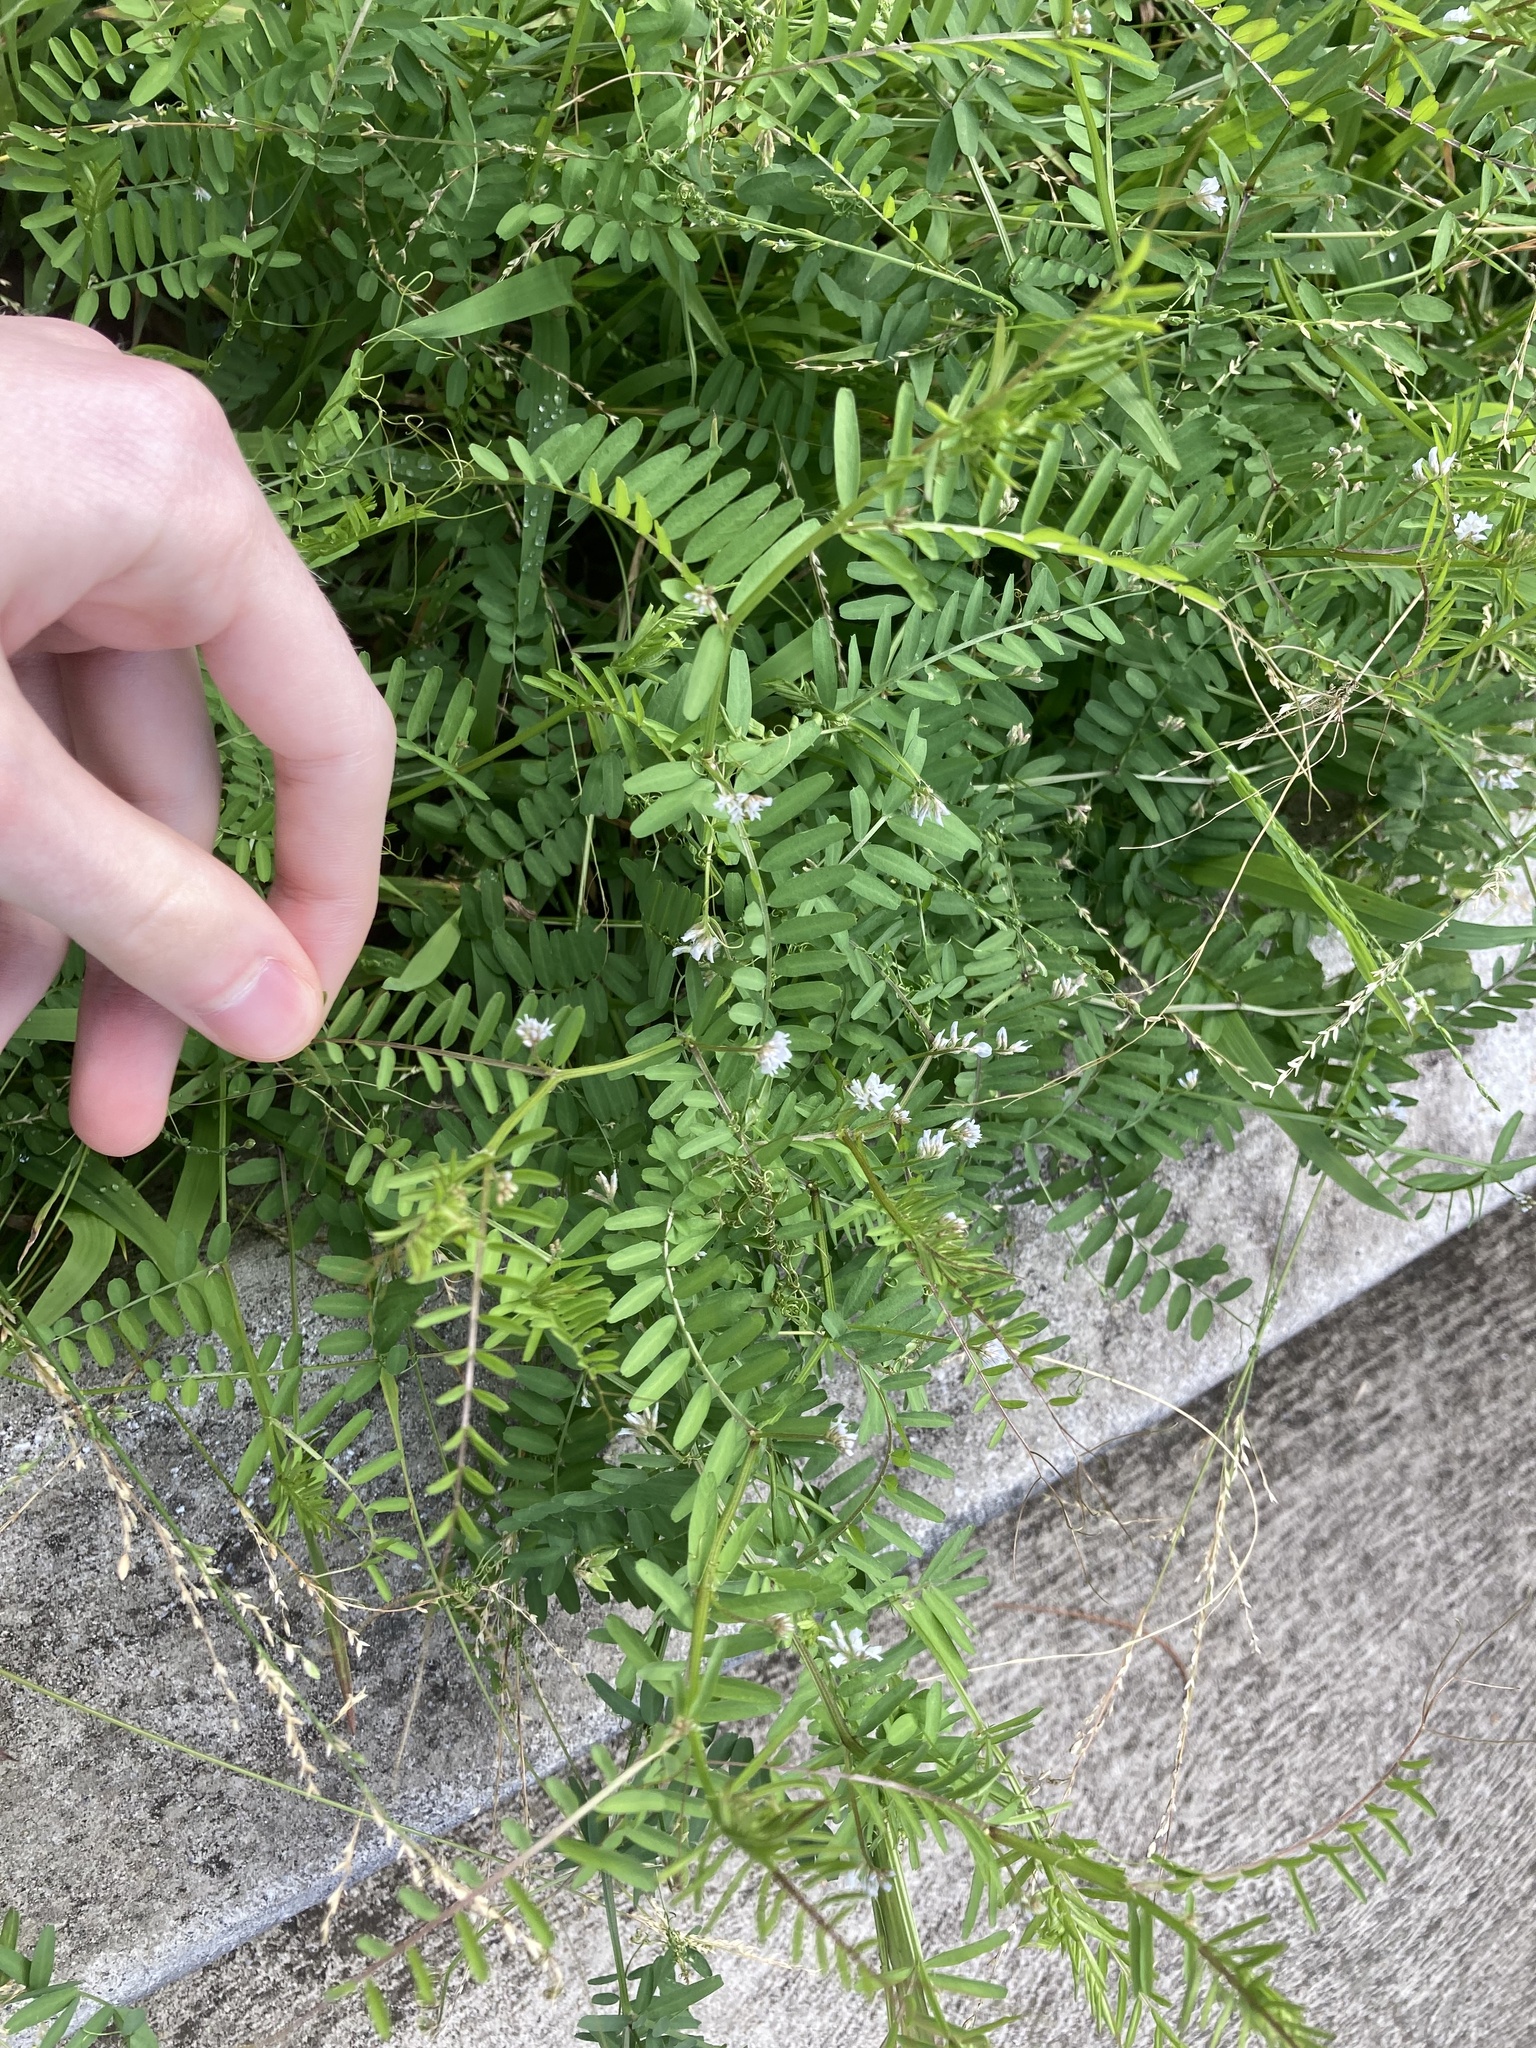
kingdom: Plantae
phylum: Tracheophyta
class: Magnoliopsida
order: Fabales
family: Fabaceae
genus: Vicia
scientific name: Vicia hirsuta
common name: Tiny vetch
